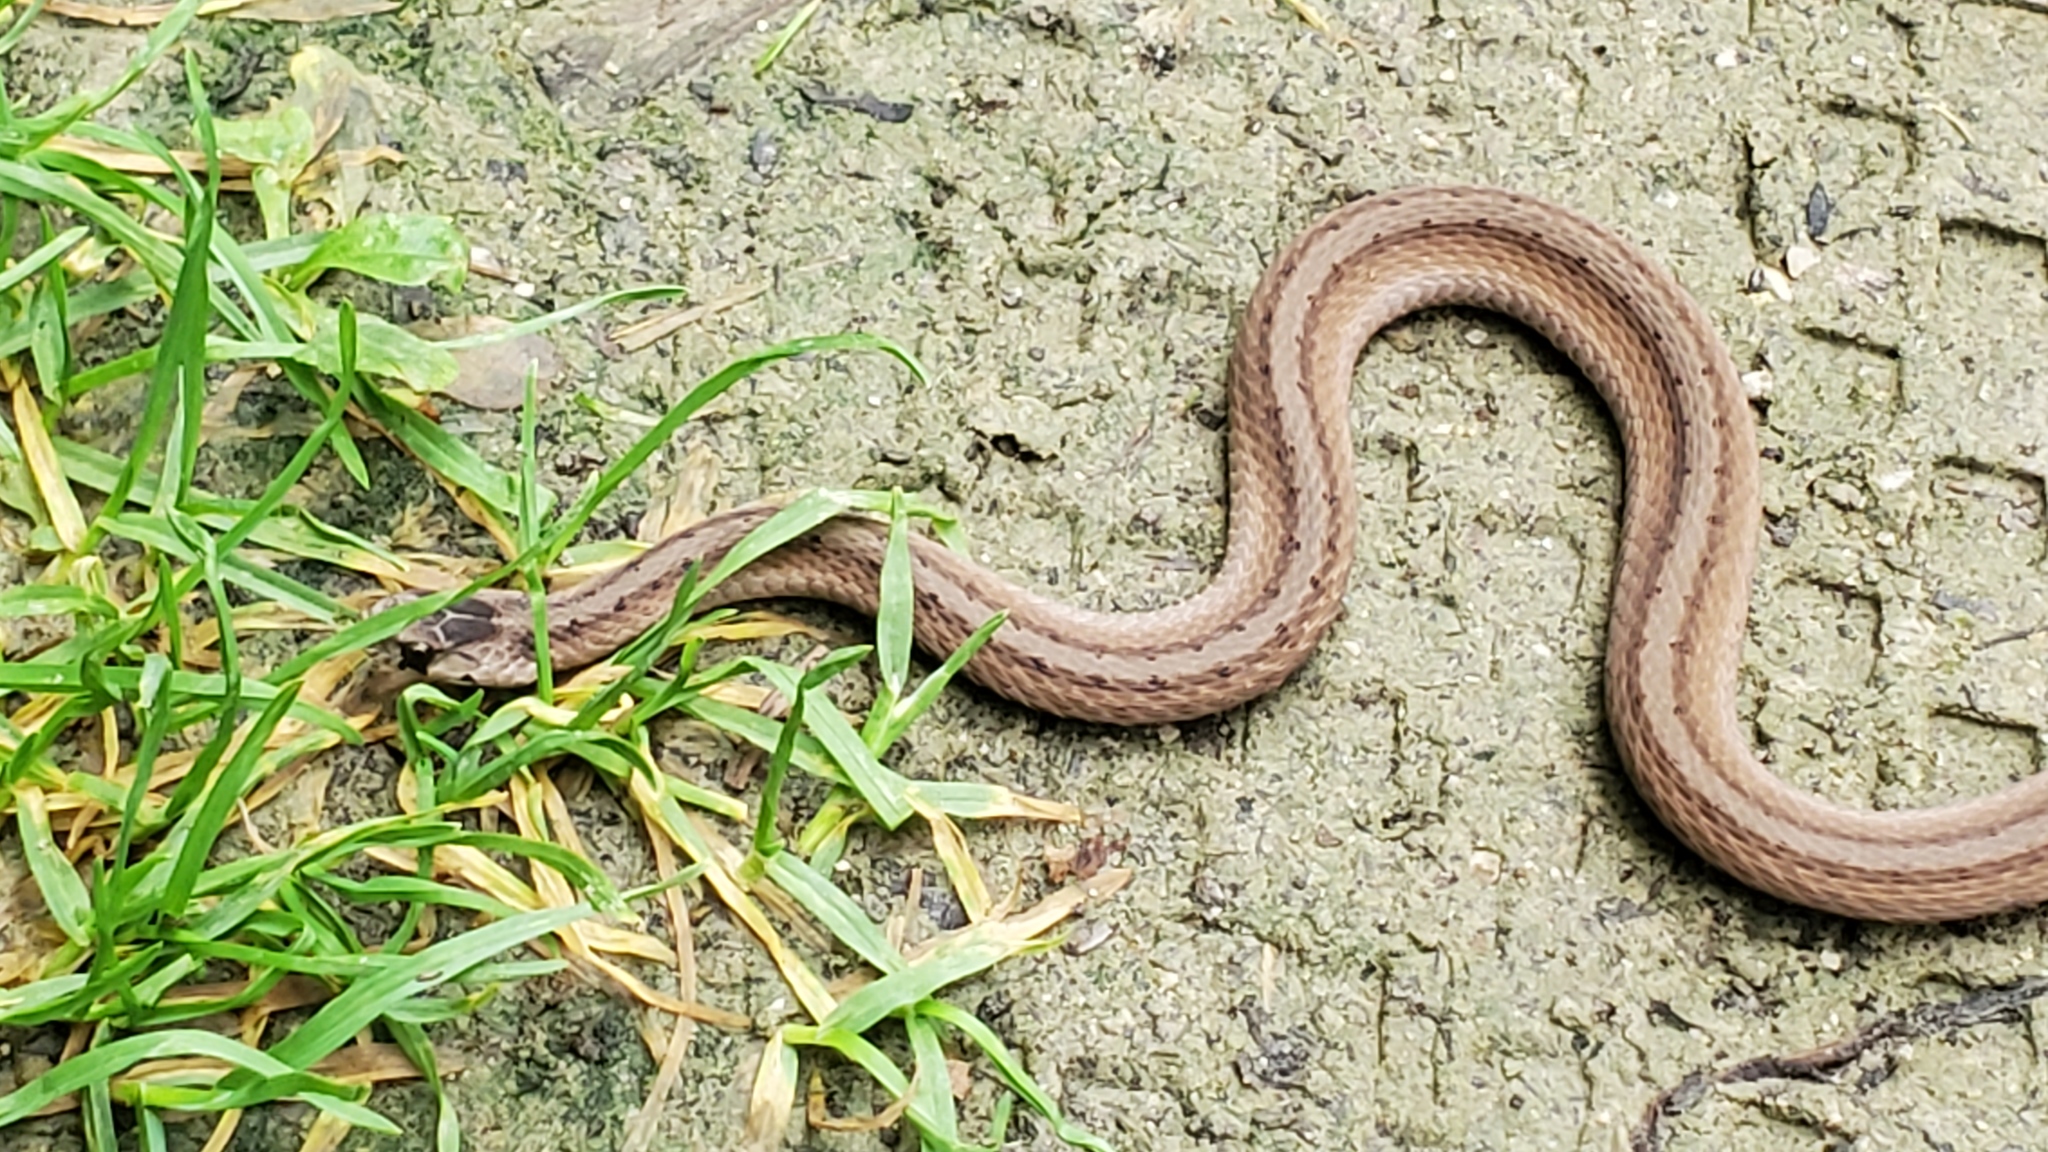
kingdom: Animalia
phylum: Chordata
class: Squamata
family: Colubridae
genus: Storeria
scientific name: Storeria dekayi
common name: (dekay’s) brown snake
